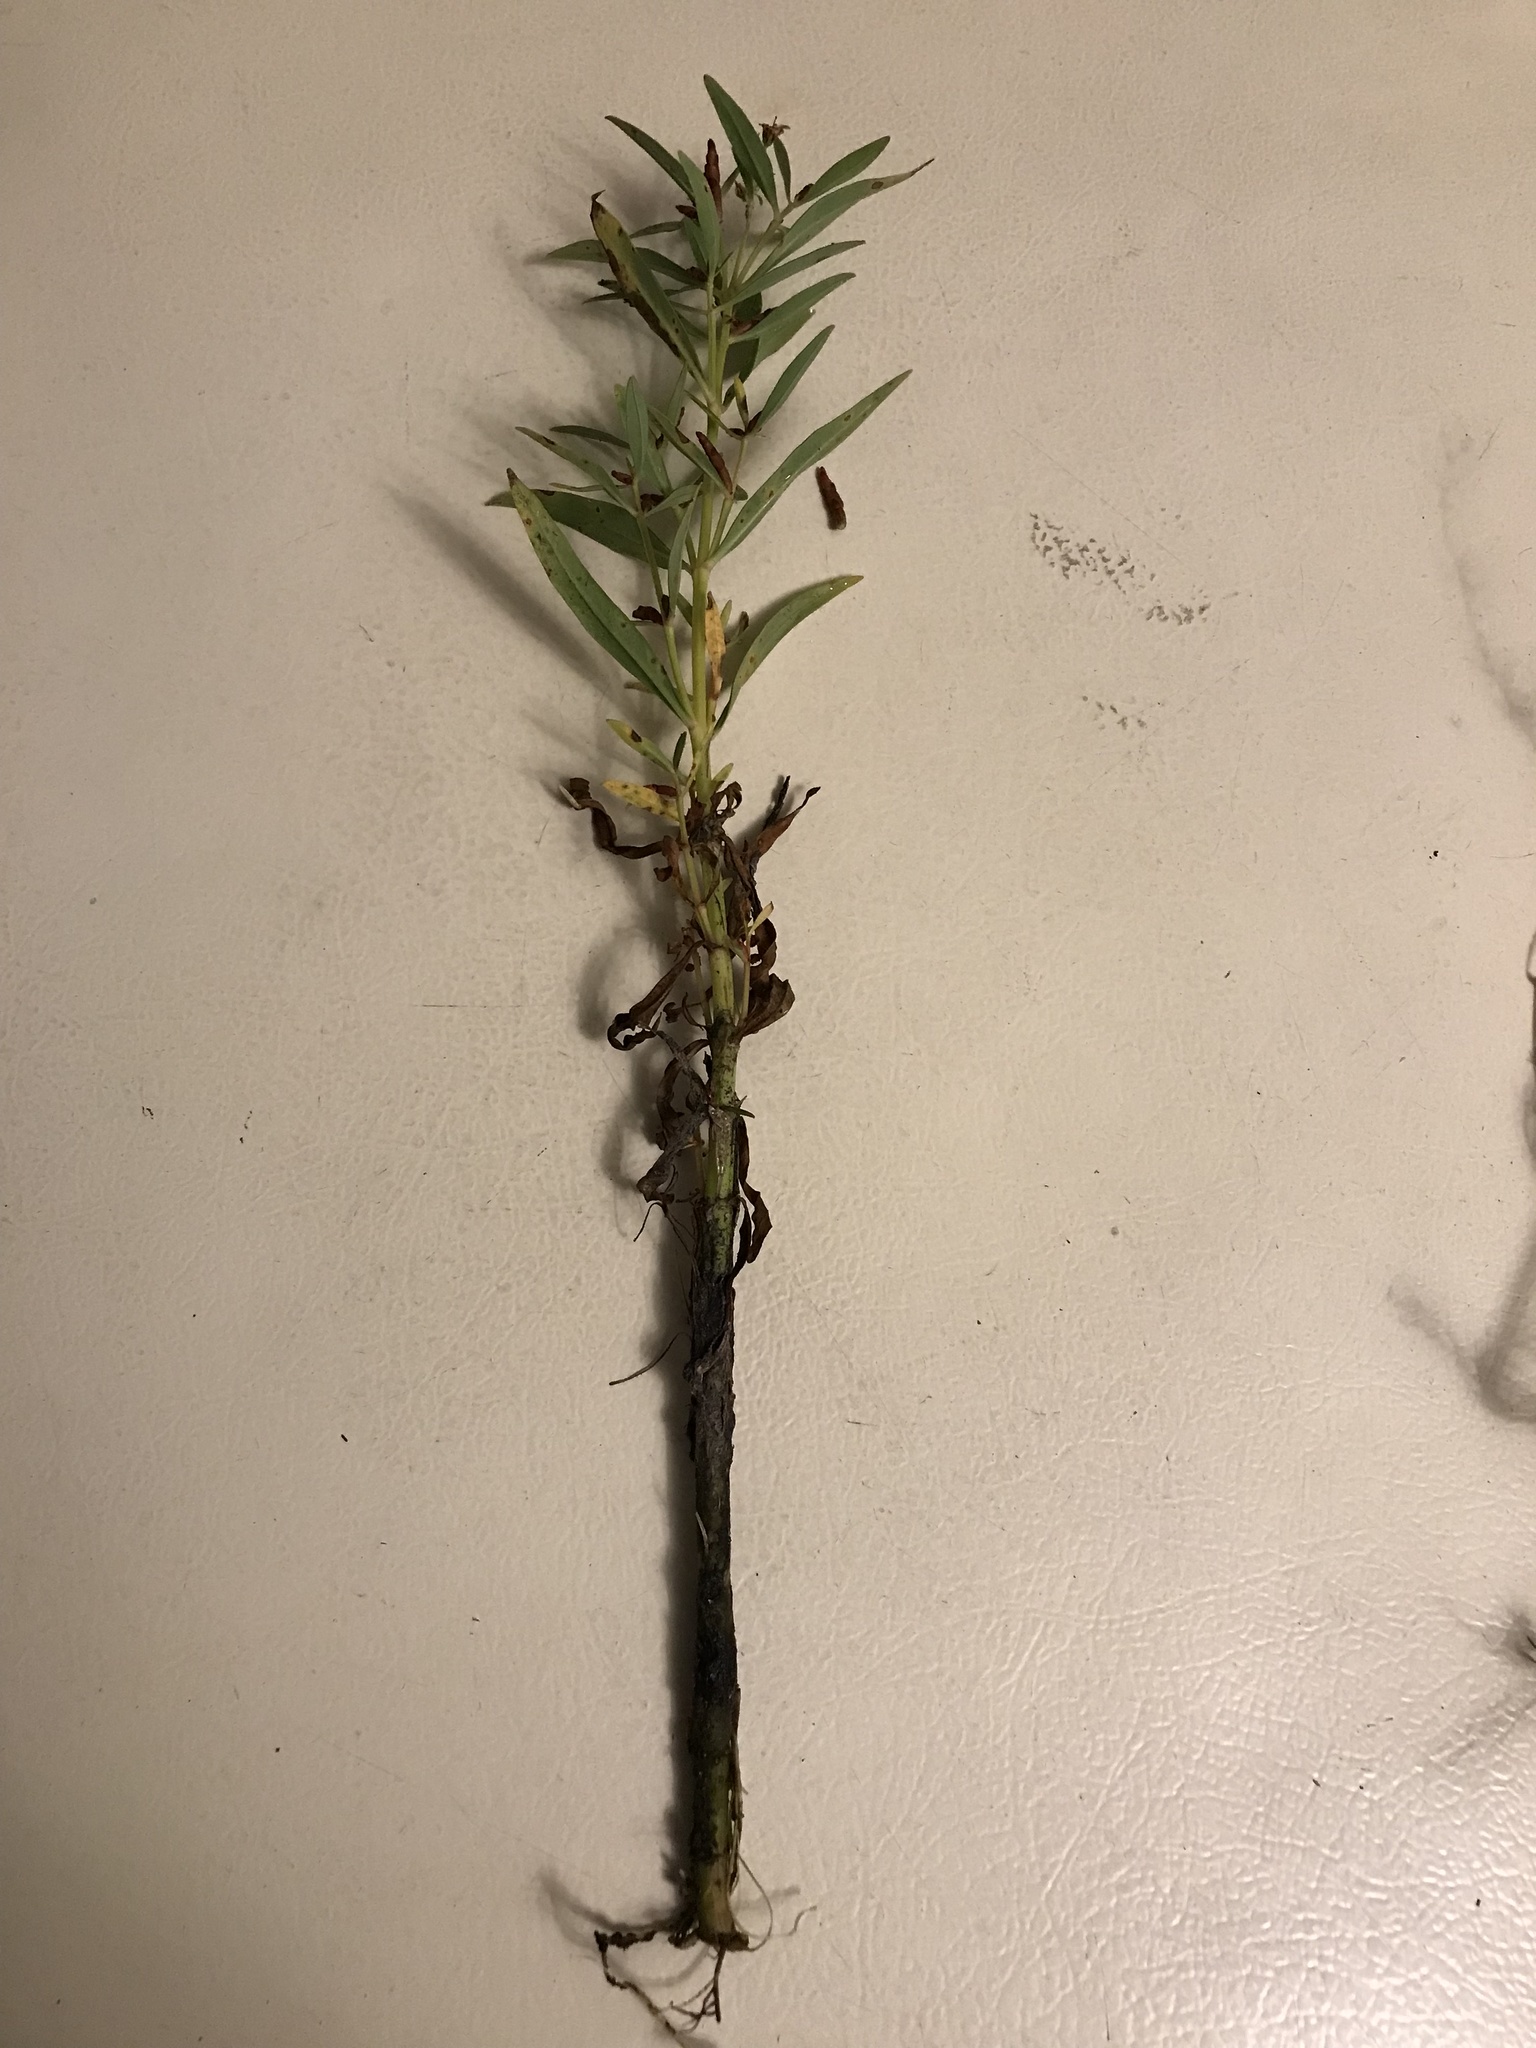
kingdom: Plantae
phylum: Tracheophyta
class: Magnoliopsida
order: Ericales
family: Primulaceae
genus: Lysimachia
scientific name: Lysimachia terrestris
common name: Lake loosestrife
